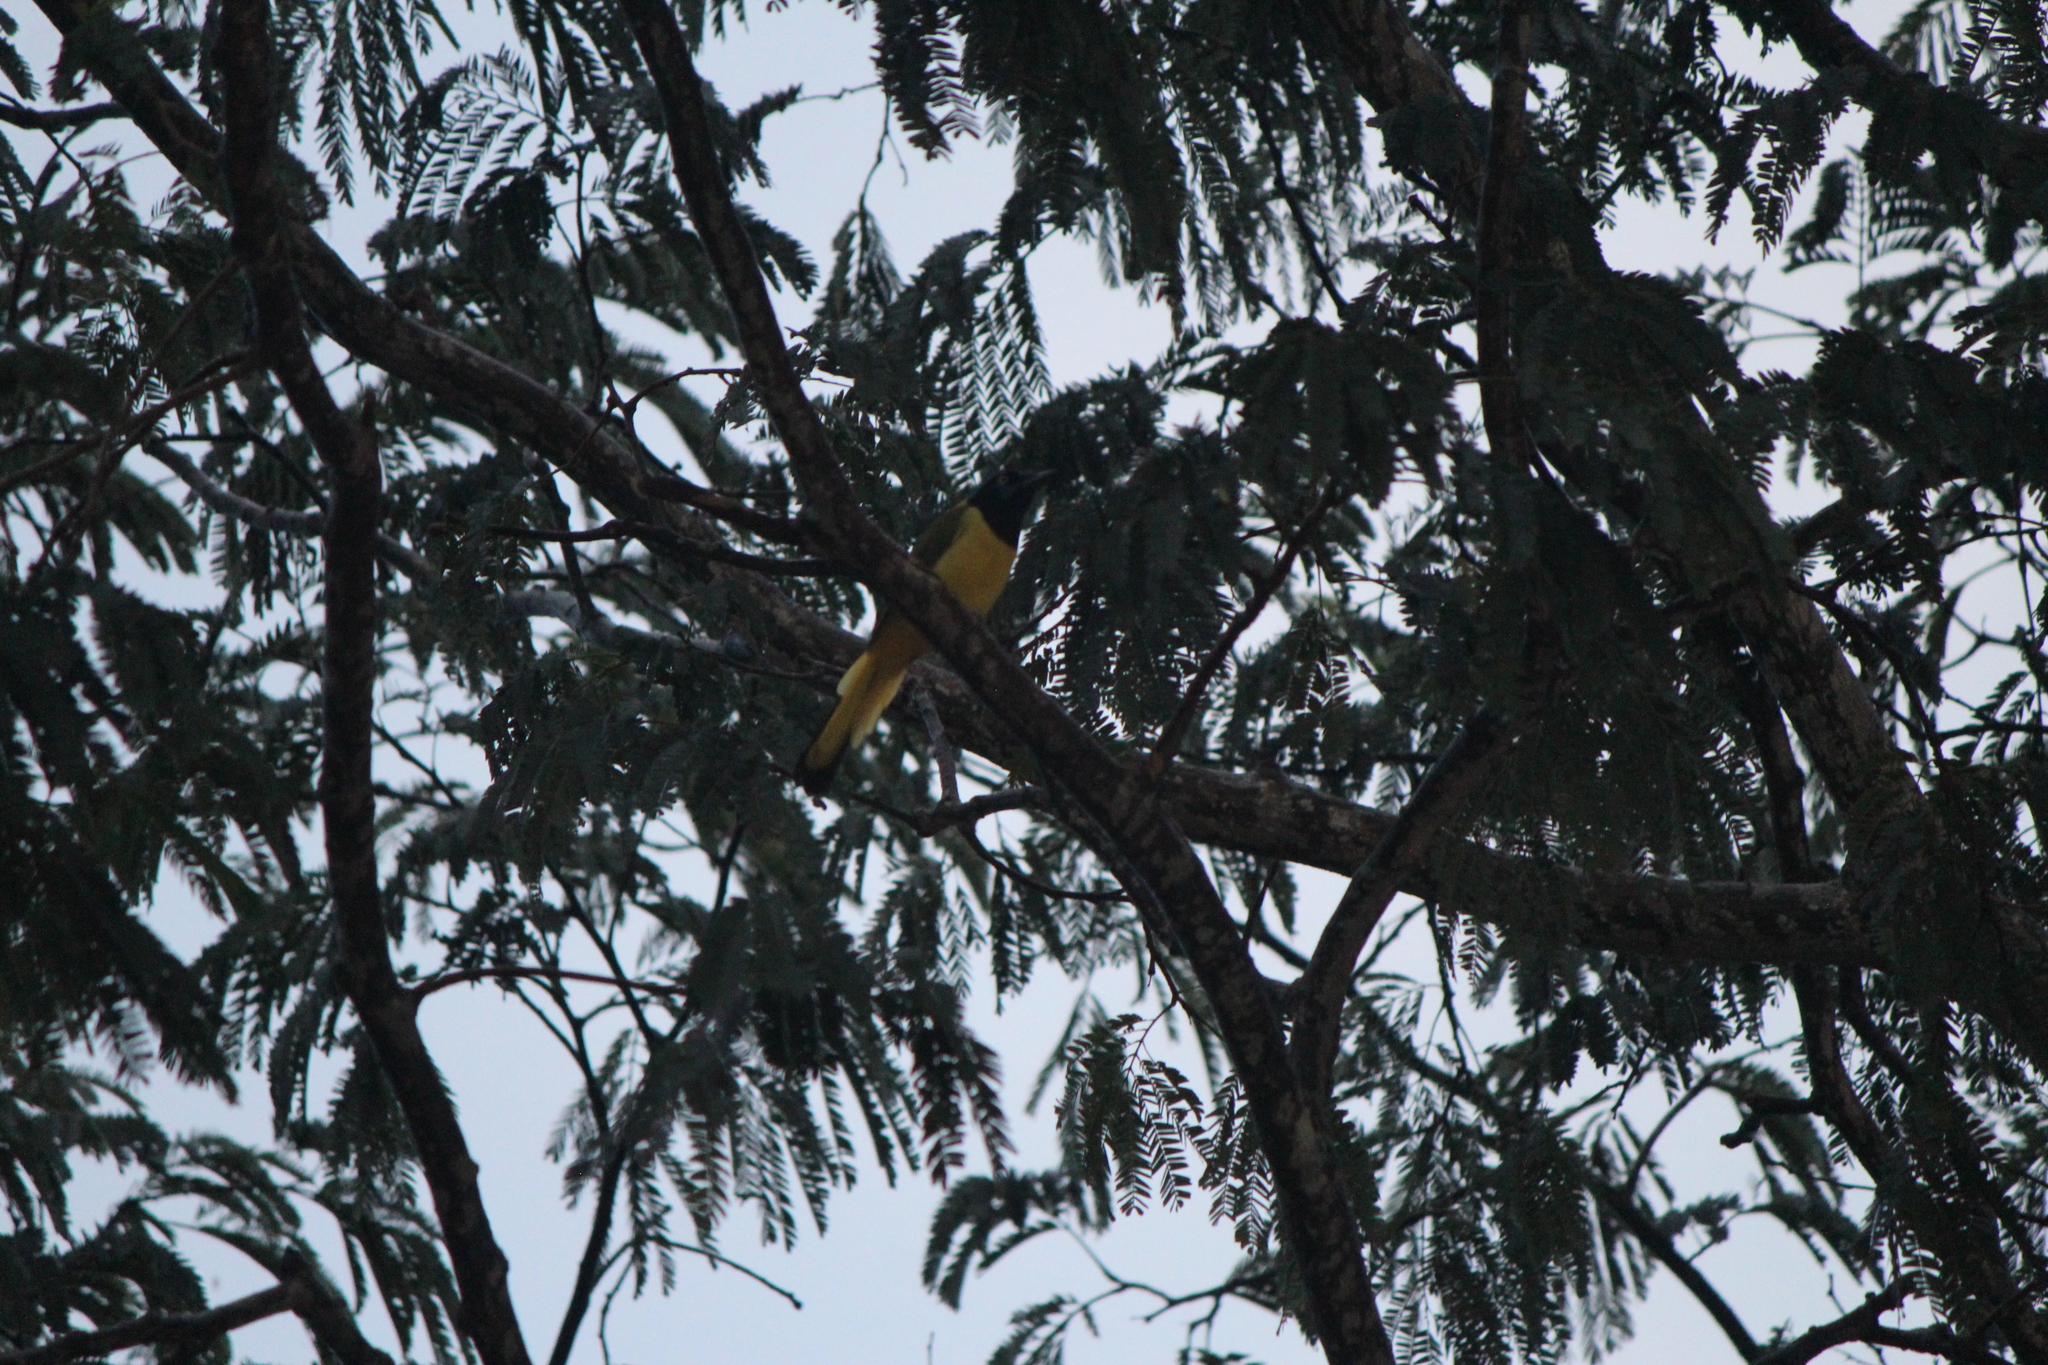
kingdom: Animalia
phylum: Chordata
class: Aves
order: Passeriformes
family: Corvidae
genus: Cyanocorax
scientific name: Cyanocorax yncas
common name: Green jay
